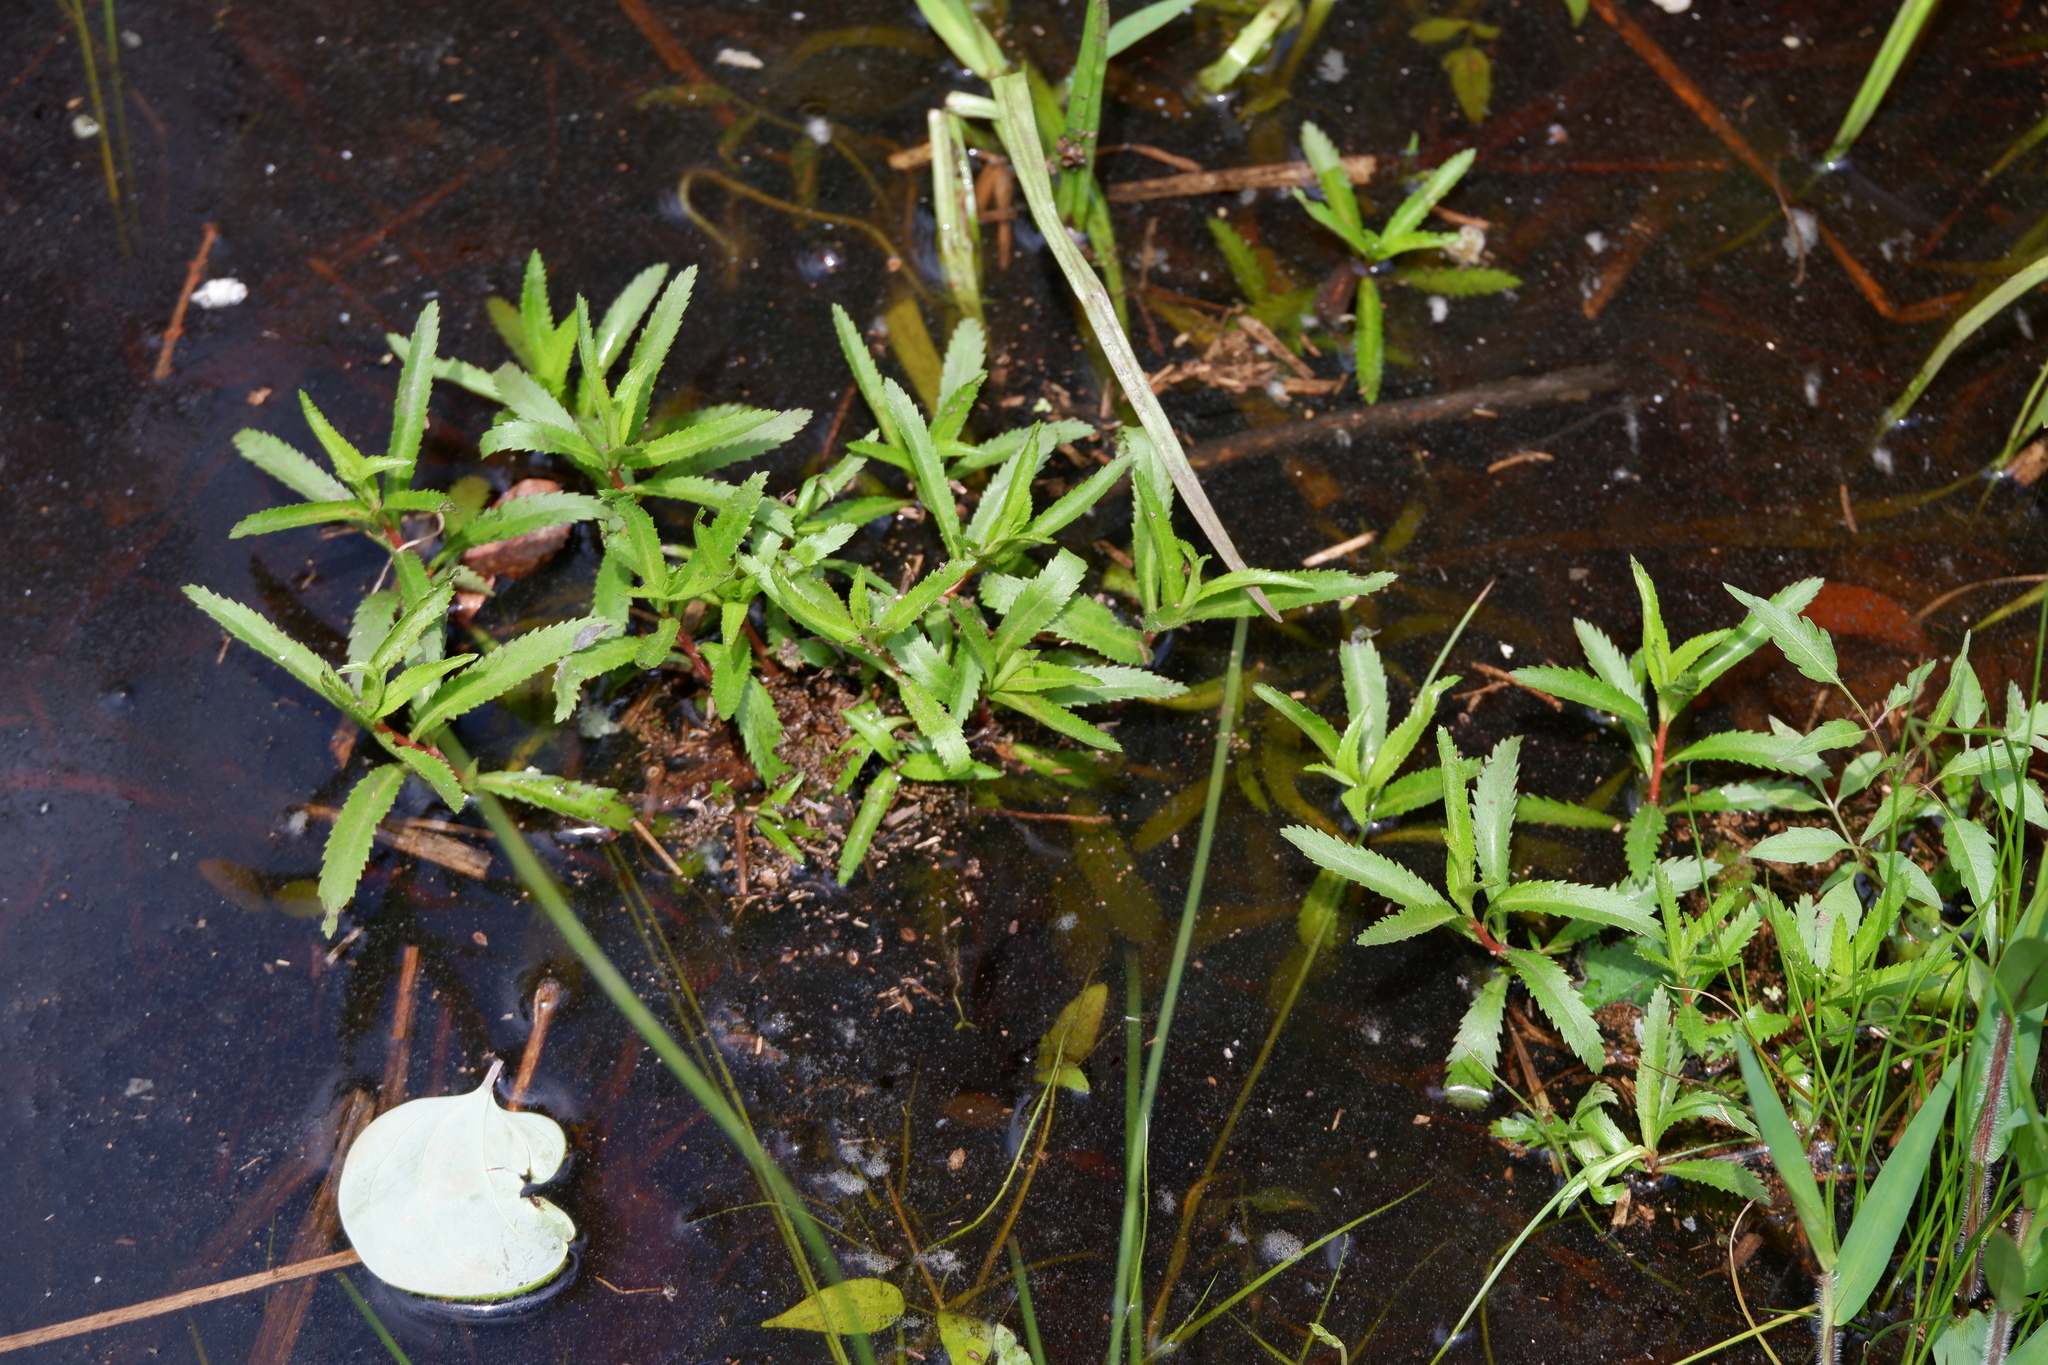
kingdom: Plantae
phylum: Tracheophyta
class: Magnoliopsida
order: Saxifragales
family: Haloragaceae
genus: Proserpinaca
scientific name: Proserpinaca palustris
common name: Marsh mermaidweed
